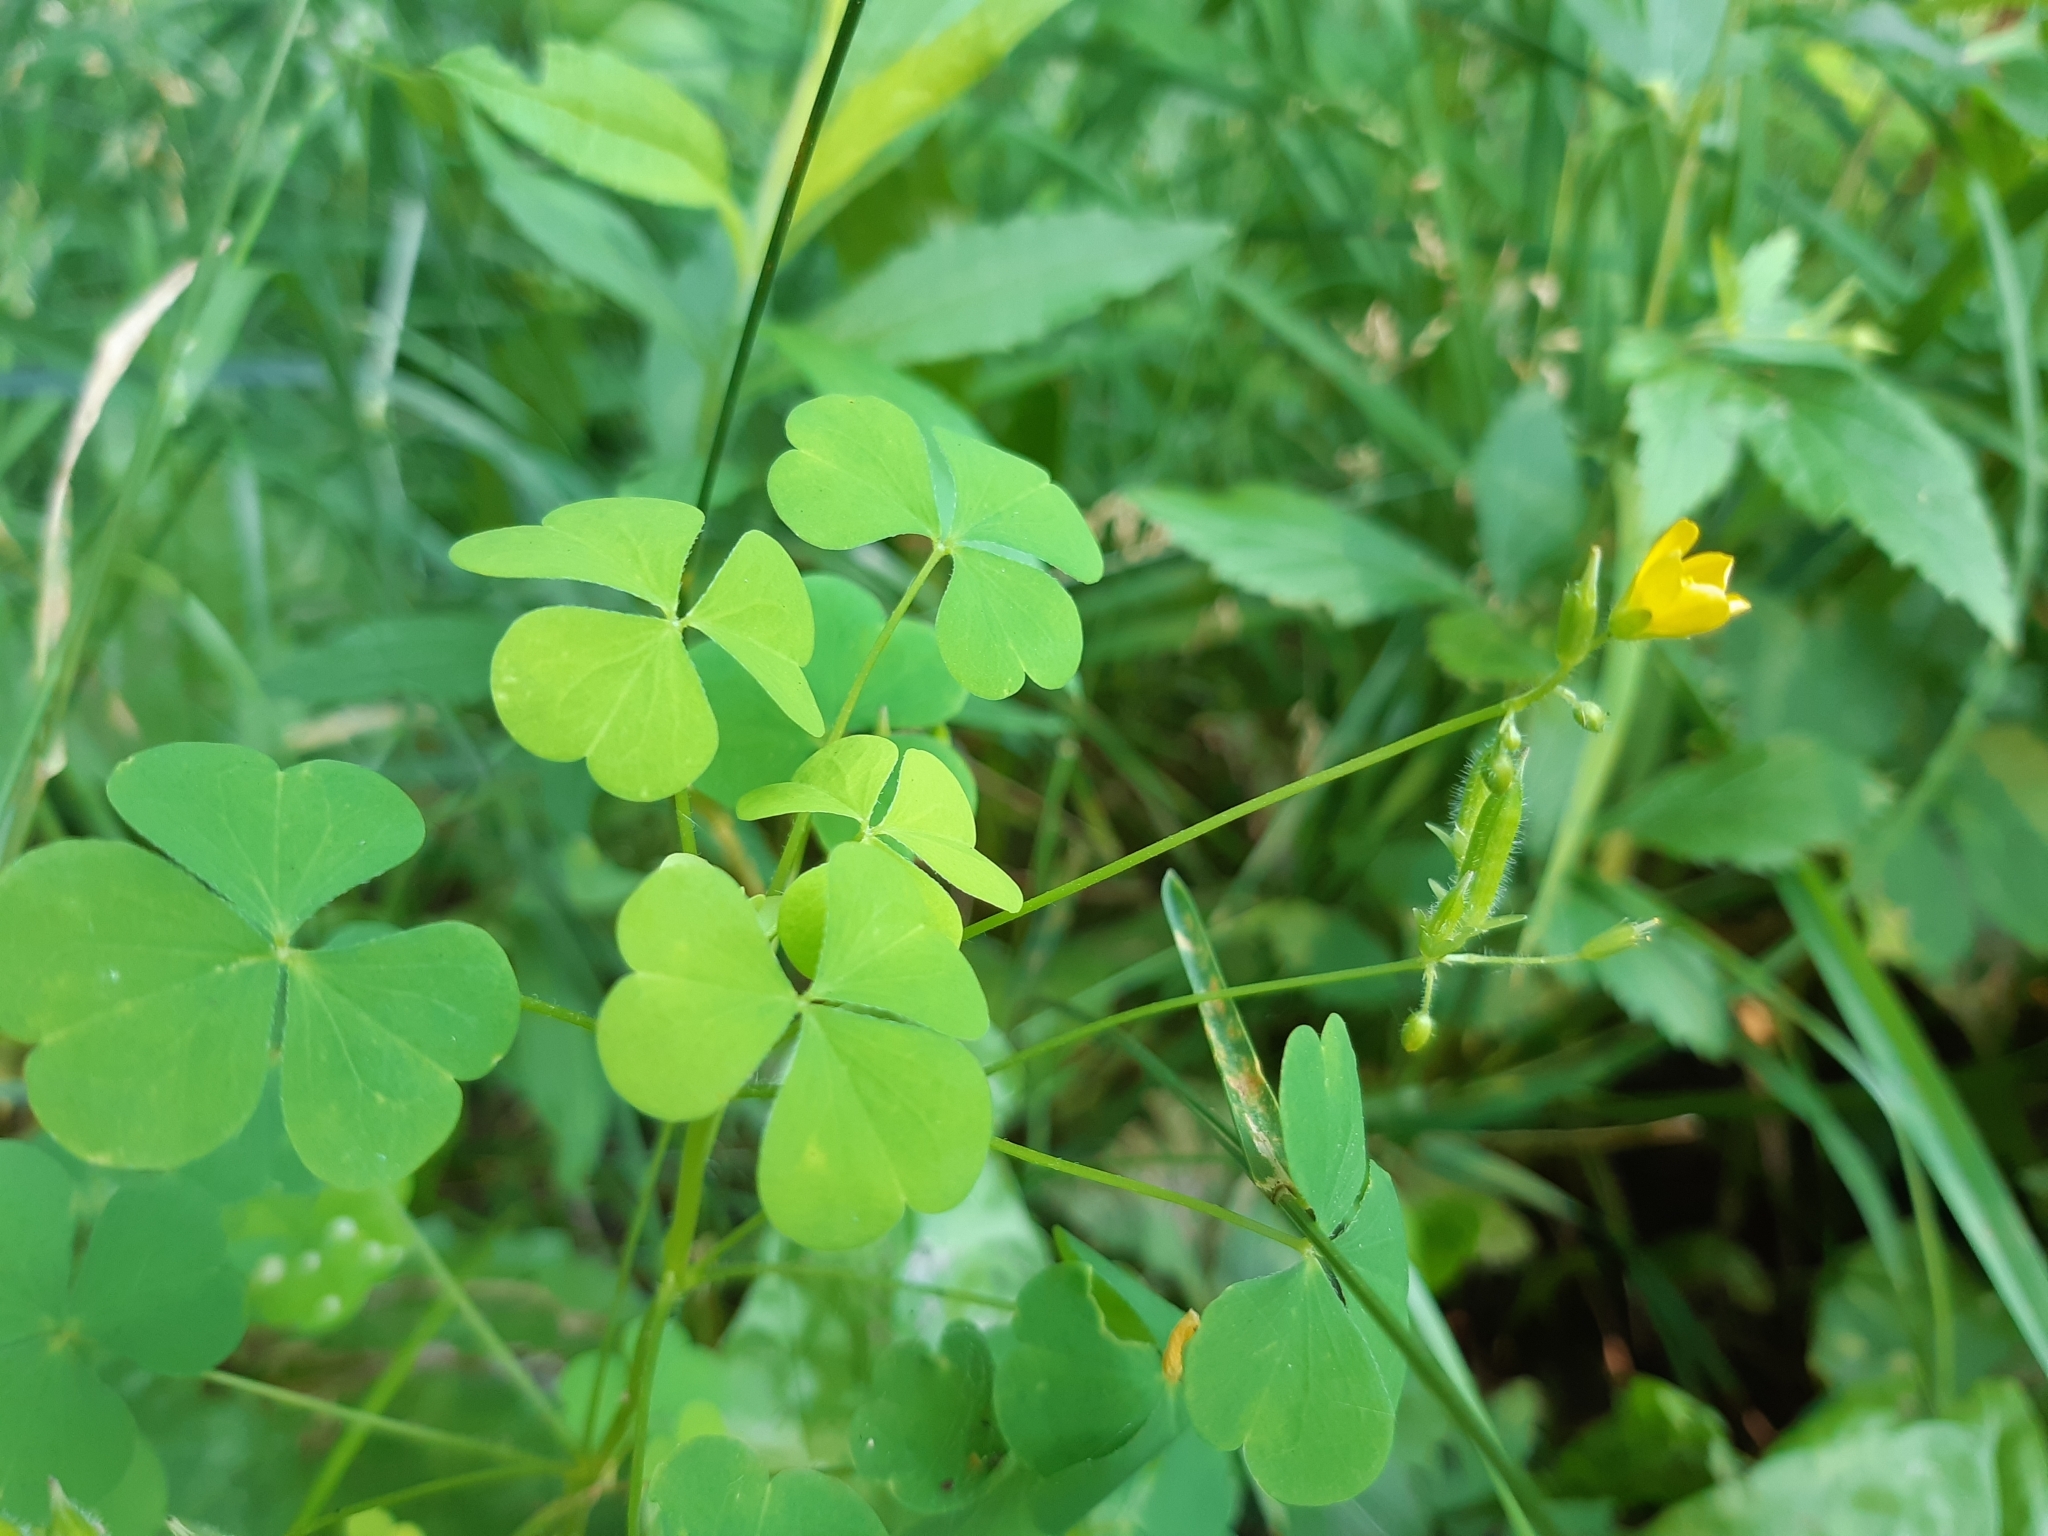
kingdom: Plantae
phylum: Tracheophyta
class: Magnoliopsida
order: Oxalidales
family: Oxalidaceae
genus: Oxalis
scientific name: Oxalis stricta
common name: Upright yellow-sorrel
